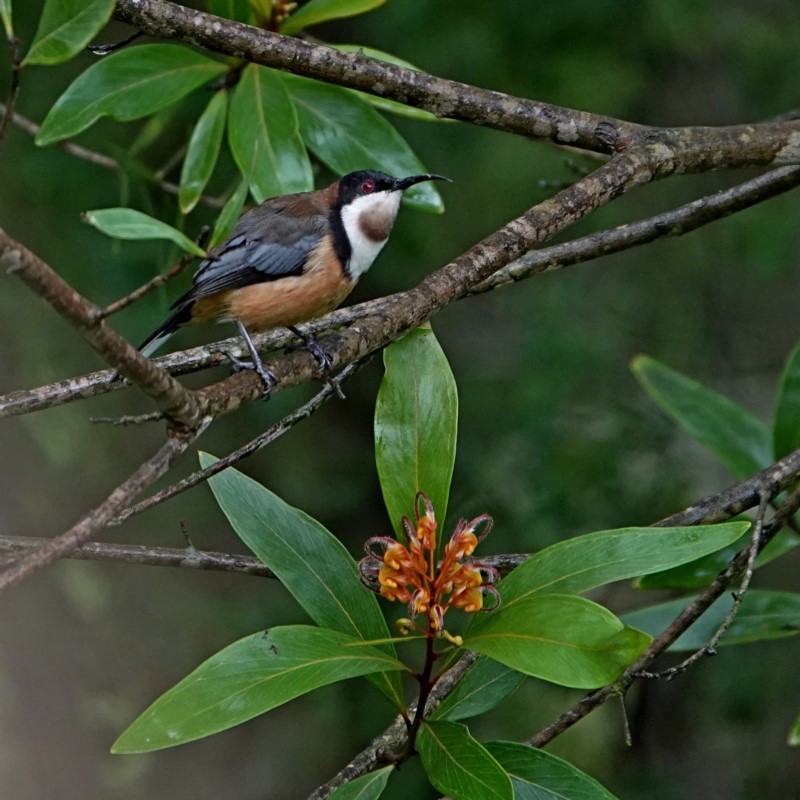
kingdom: Animalia
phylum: Chordata
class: Aves
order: Passeriformes
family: Meliphagidae
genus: Acanthorhynchus
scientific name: Acanthorhynchus tenuirostris
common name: Eastern spinebill
